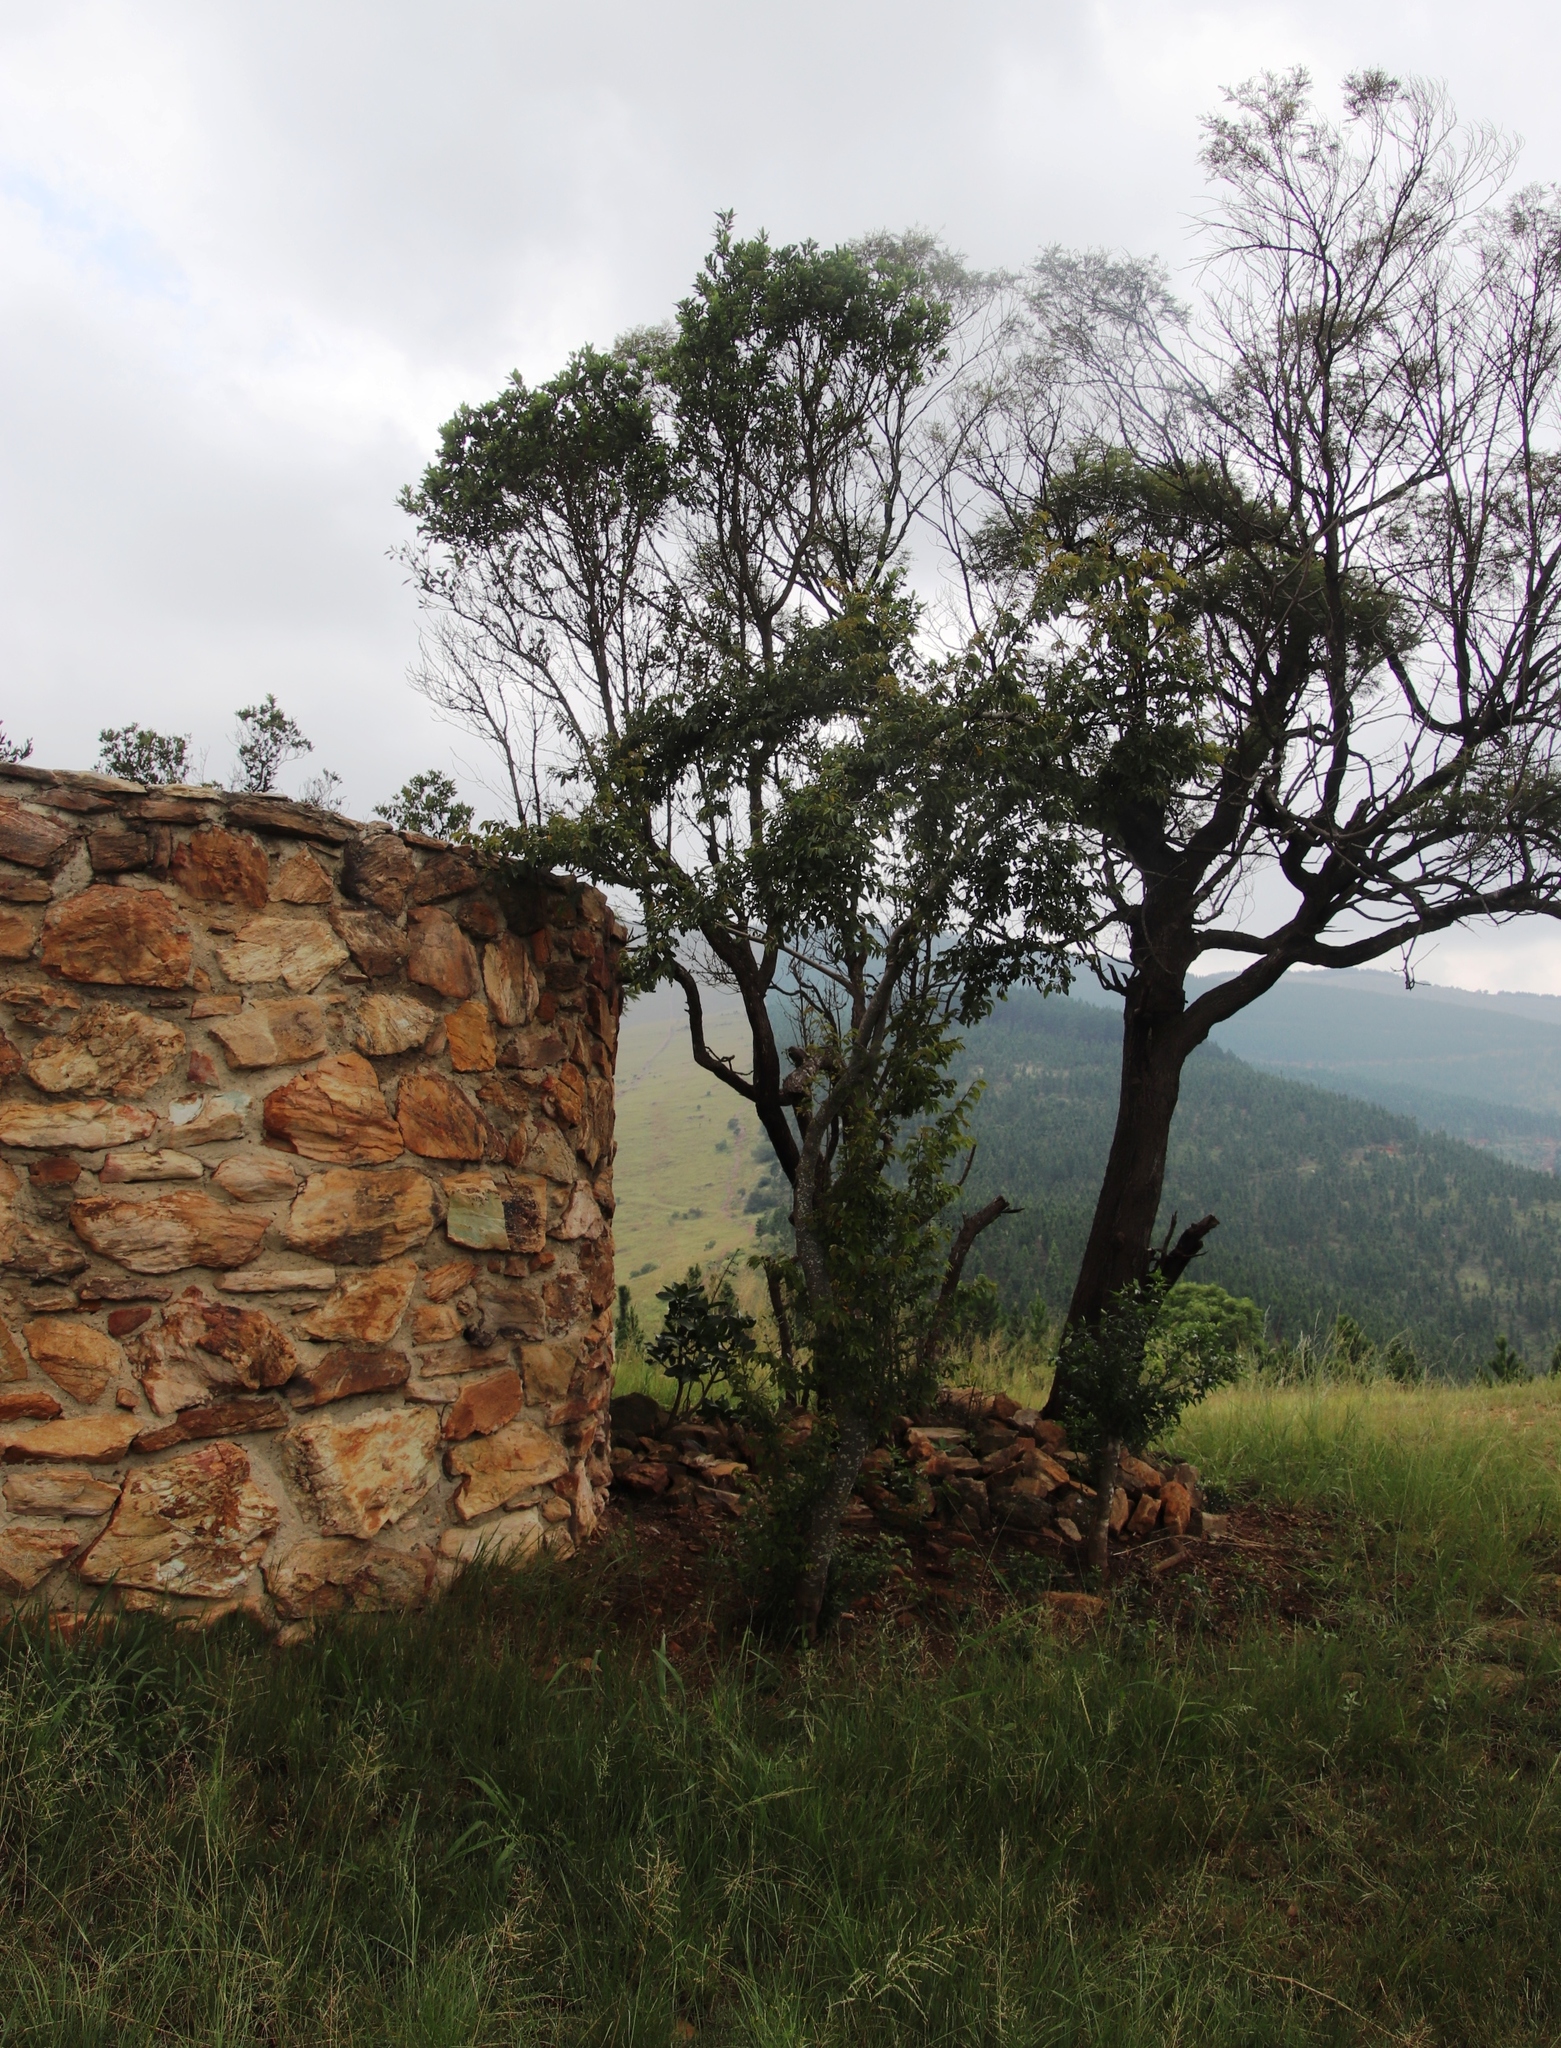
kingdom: Plantae
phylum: Tracheophyta
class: Magnoliopsida
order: Fabales
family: Fabaceae
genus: Acacia
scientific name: Acacia dealbata
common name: Silver wattle
